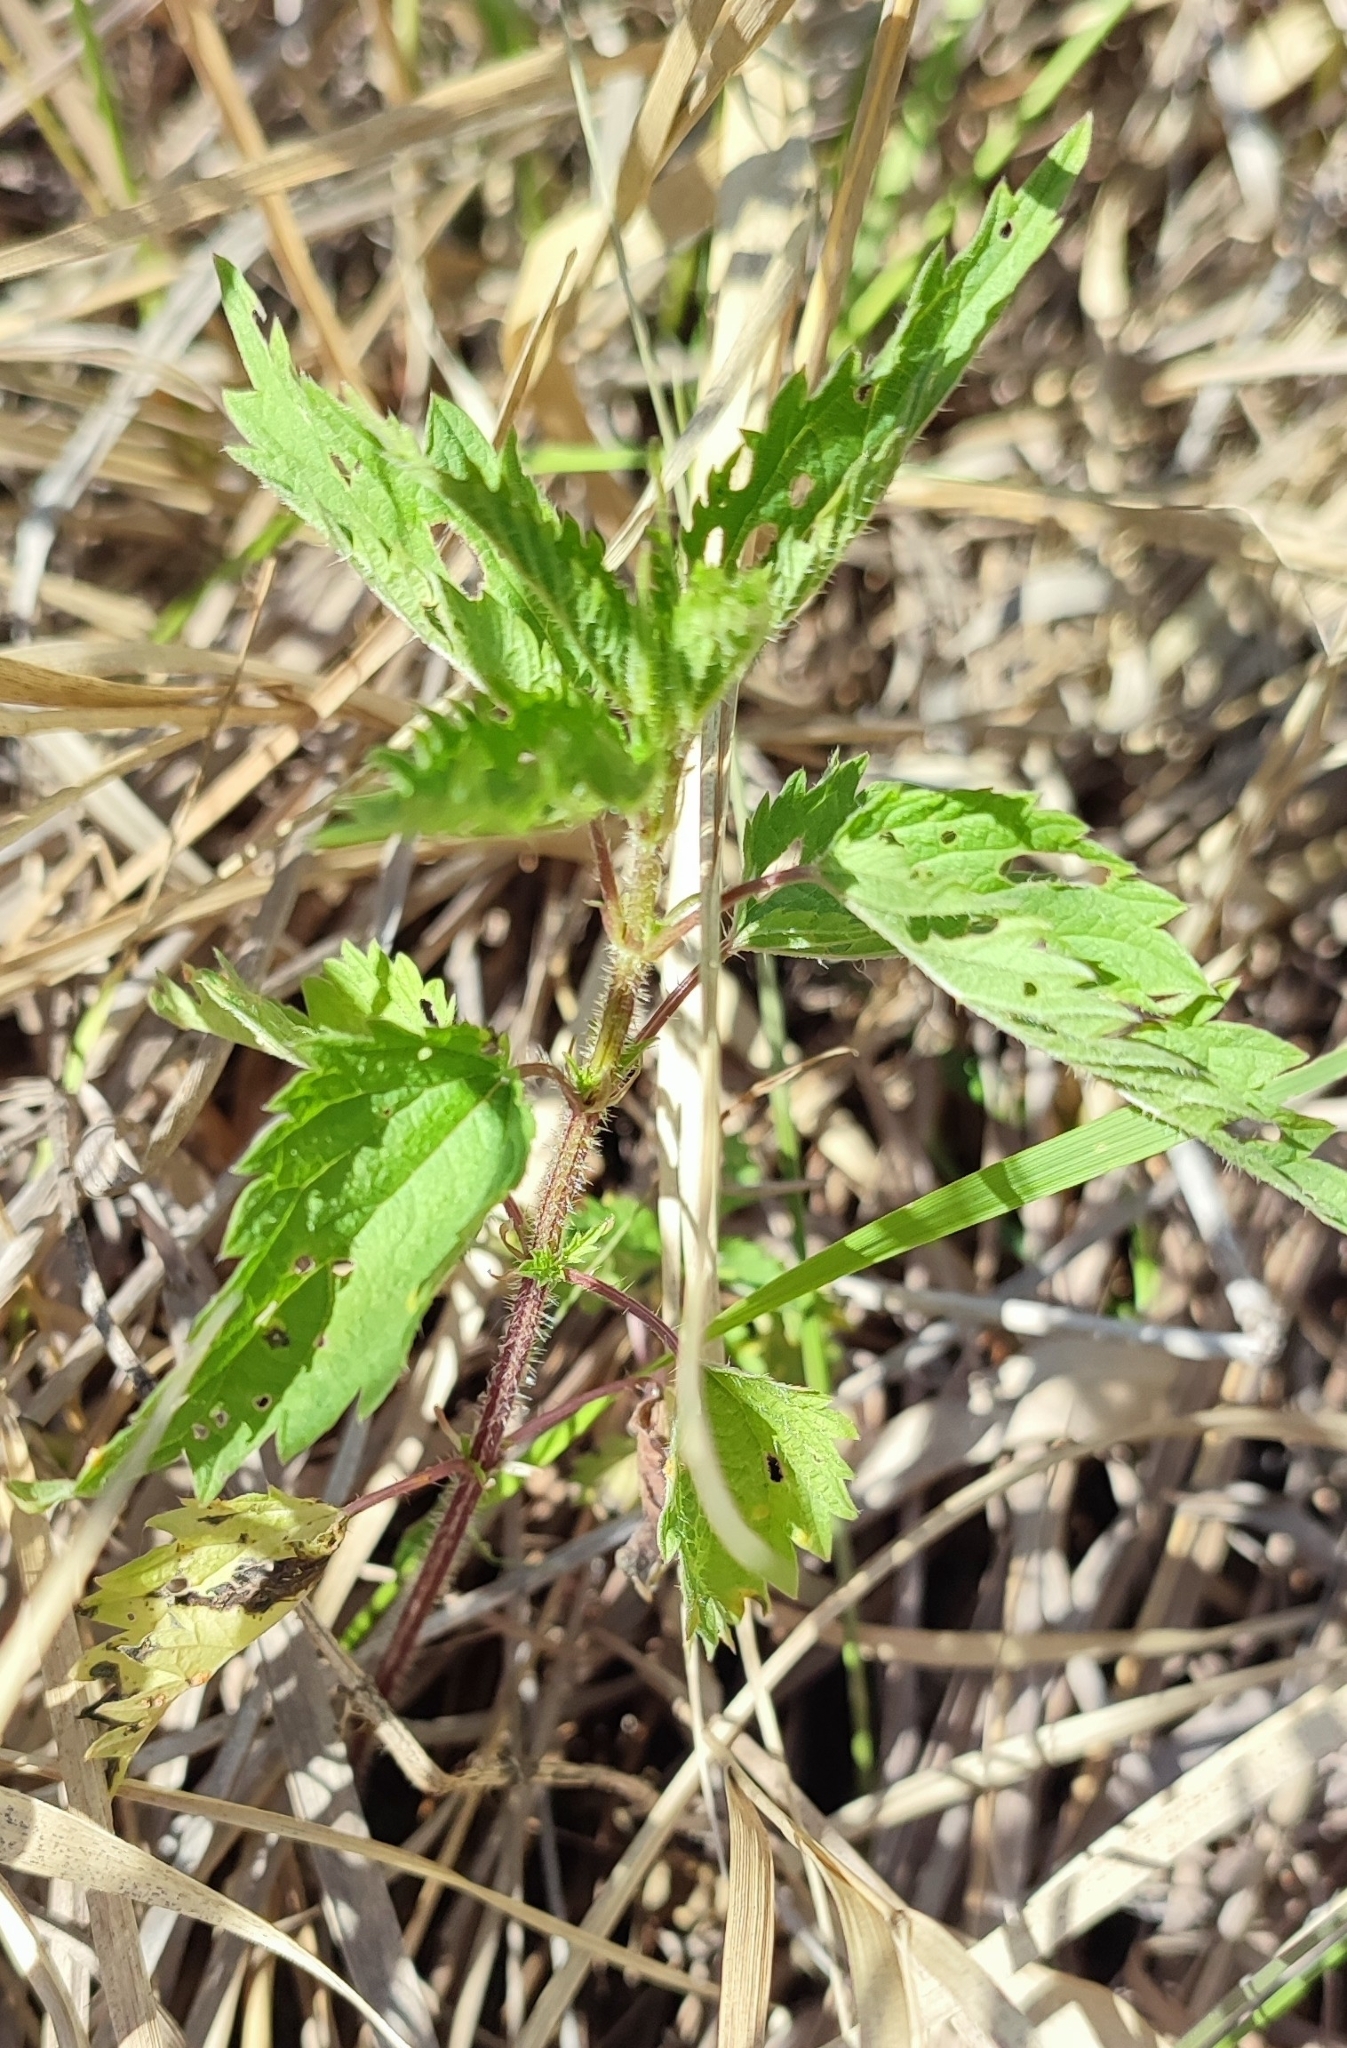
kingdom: Plantae
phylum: Tracheophyta
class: Magnoliopsida
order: Rosales
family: Urticaceae
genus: Urtica
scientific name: Urtica dioica
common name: Common nettle
